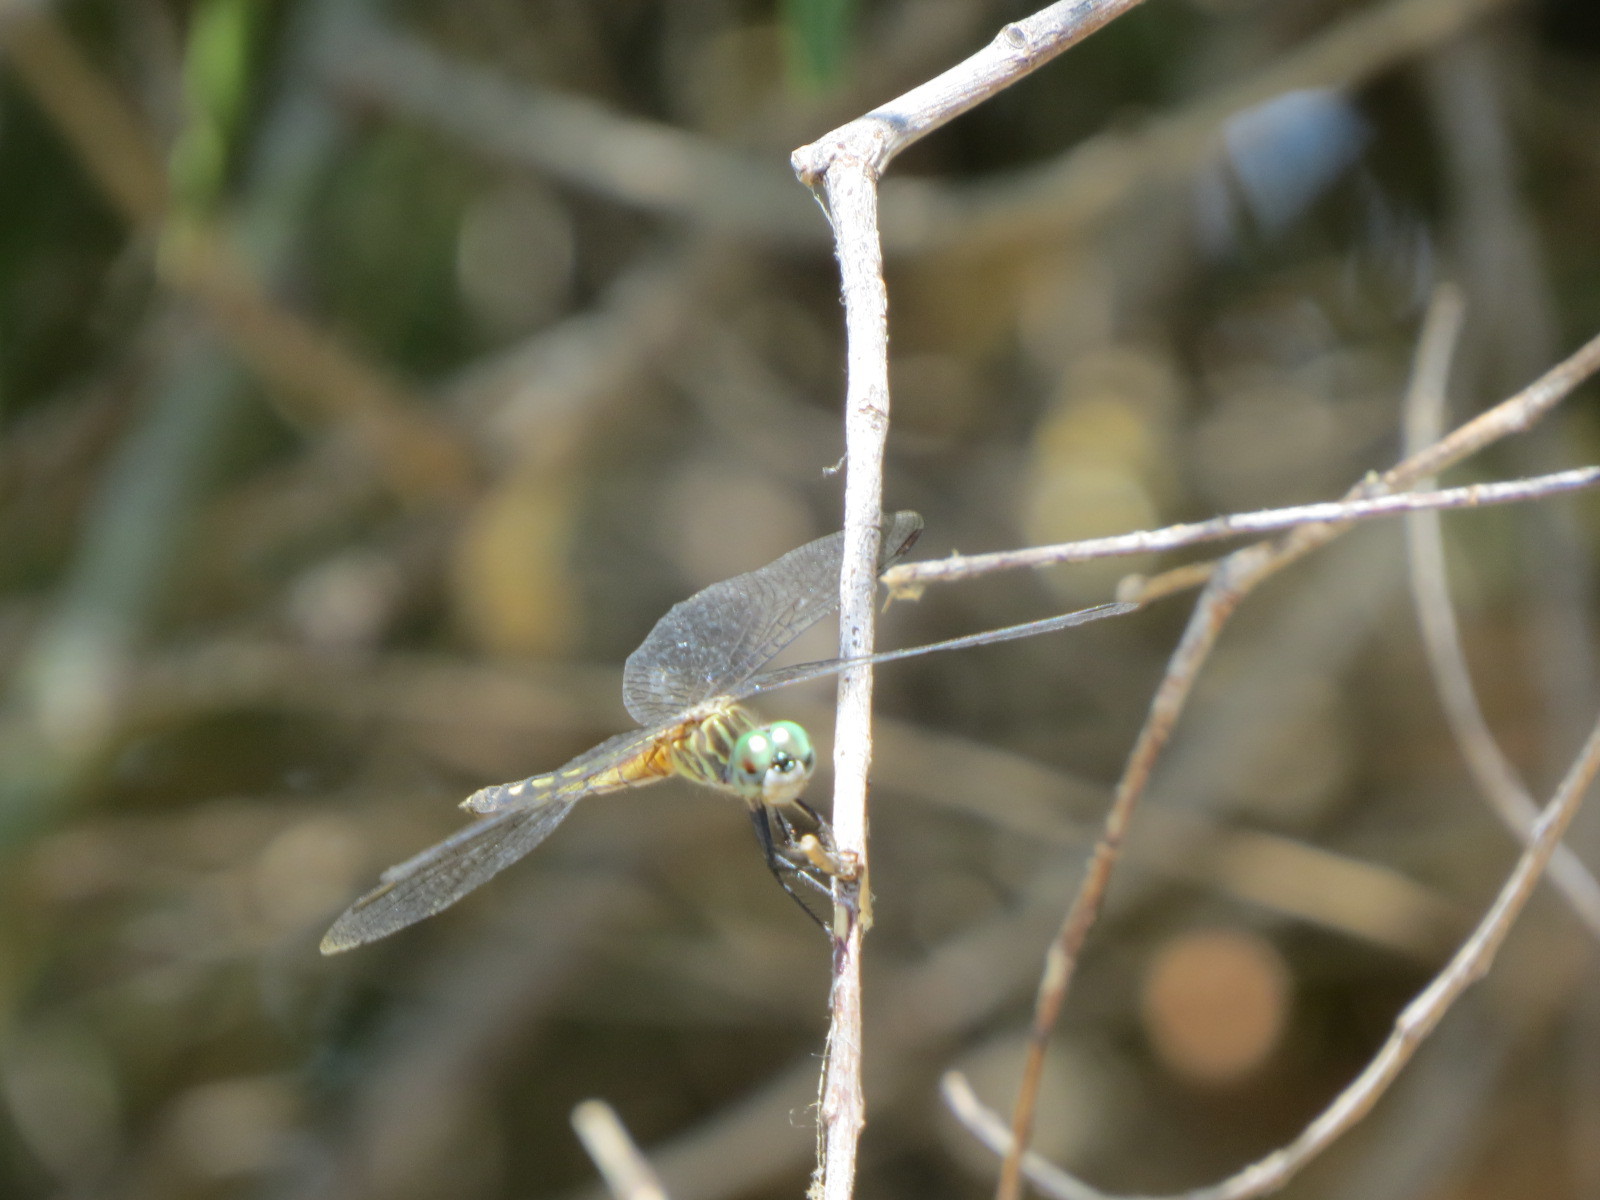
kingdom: Animalia
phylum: Arthropoda
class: Insecta
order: Odonata
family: Libellulidae
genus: Pachydiplax
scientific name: Pachydiplax longipennis
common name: Blue dasher
